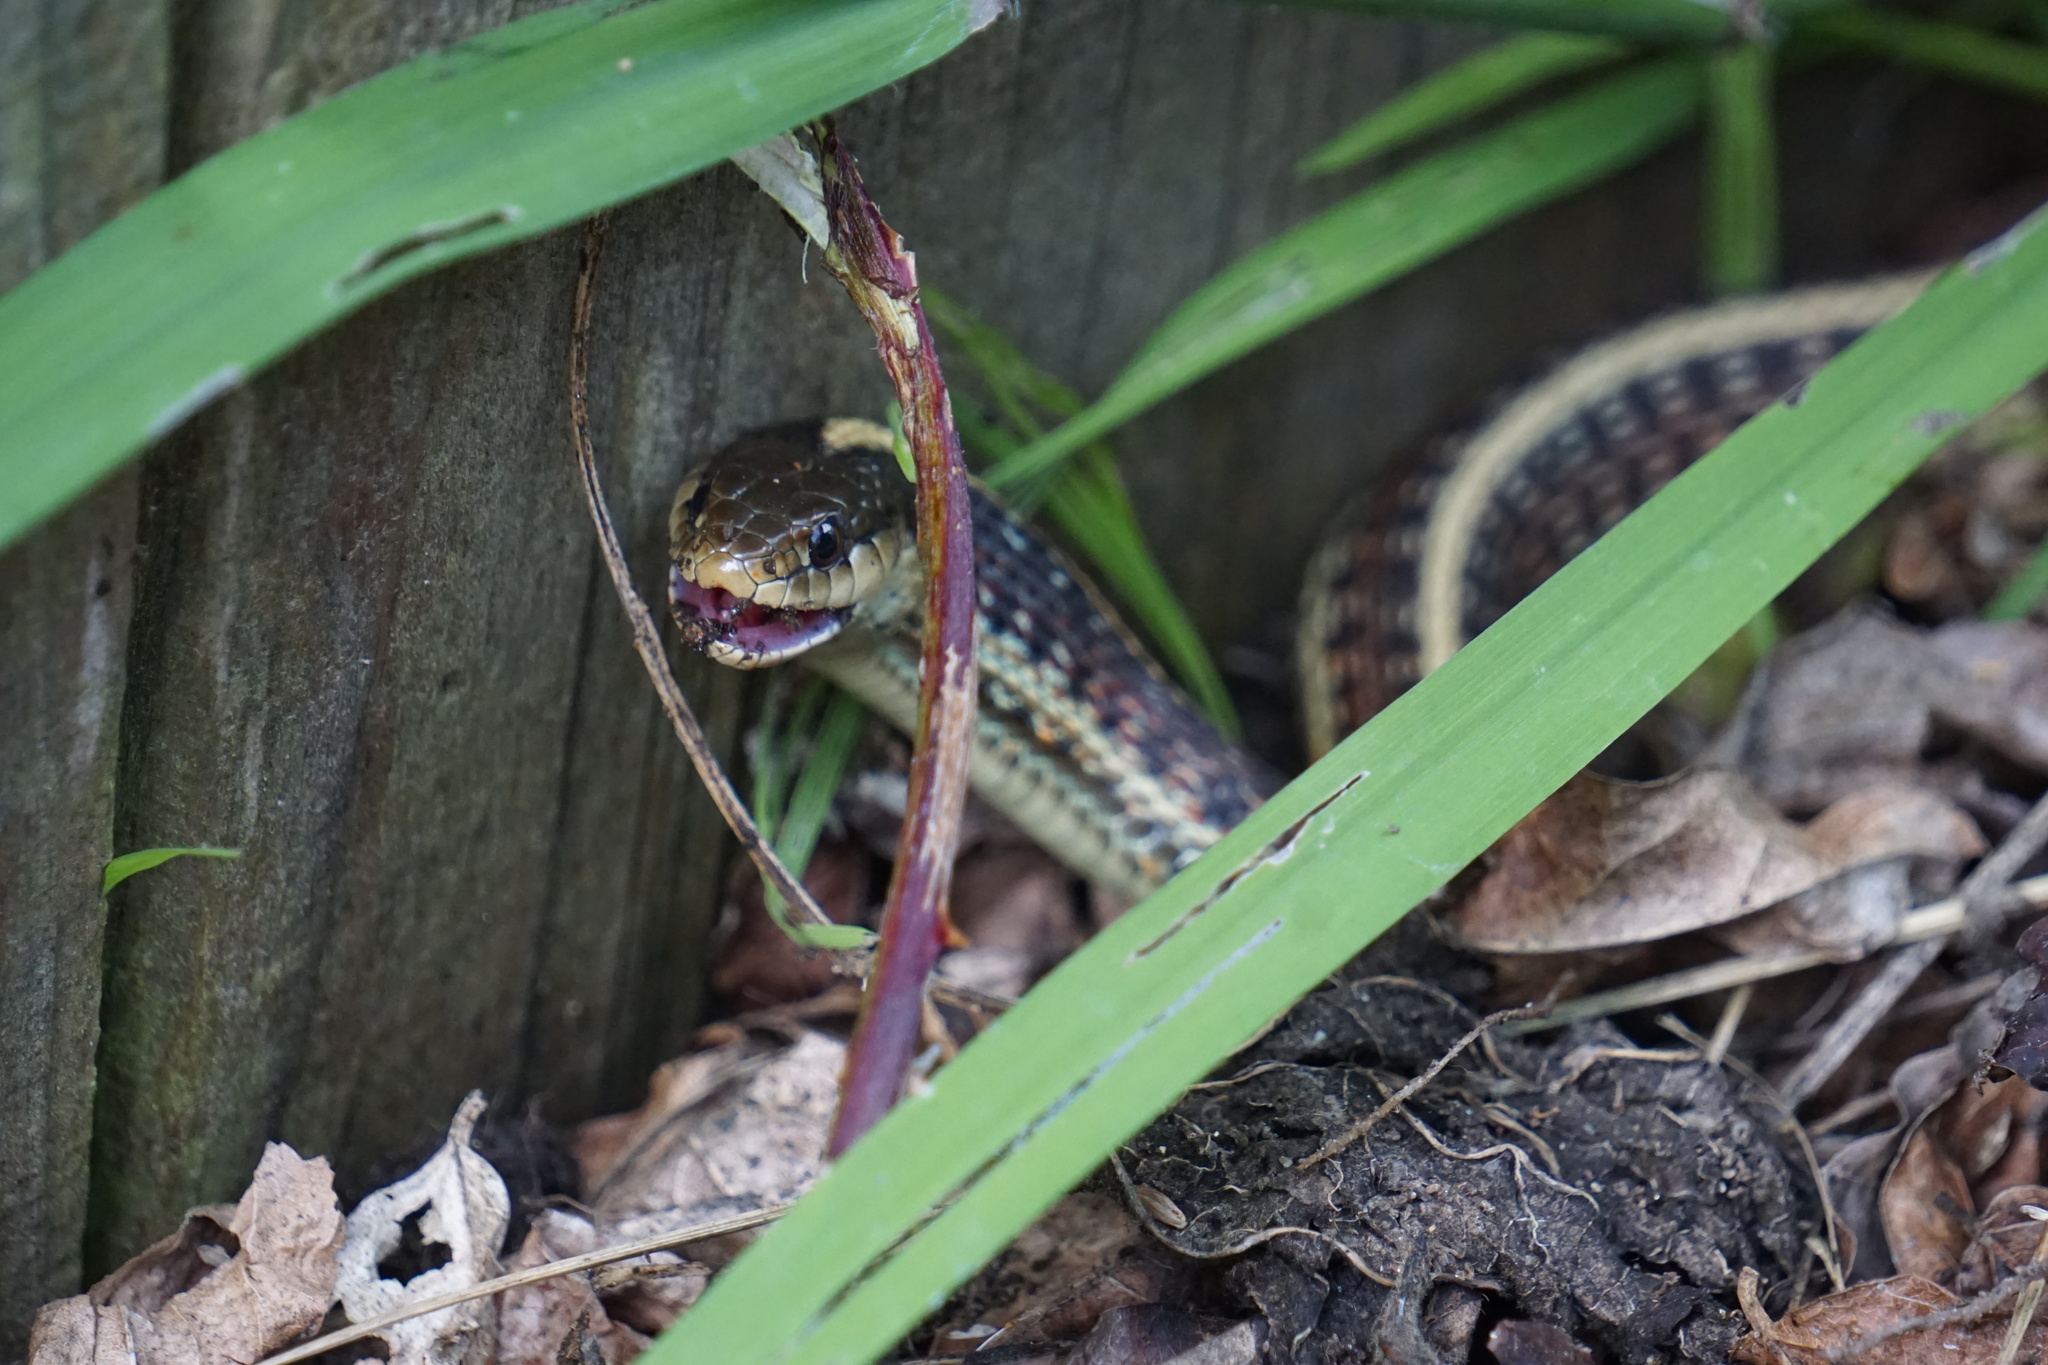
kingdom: Animalia
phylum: Chordata
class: Amphibia
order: Anura
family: Hylidae
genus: Pseudacris
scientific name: Pseudacris regilla
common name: Pacific chorus frog
